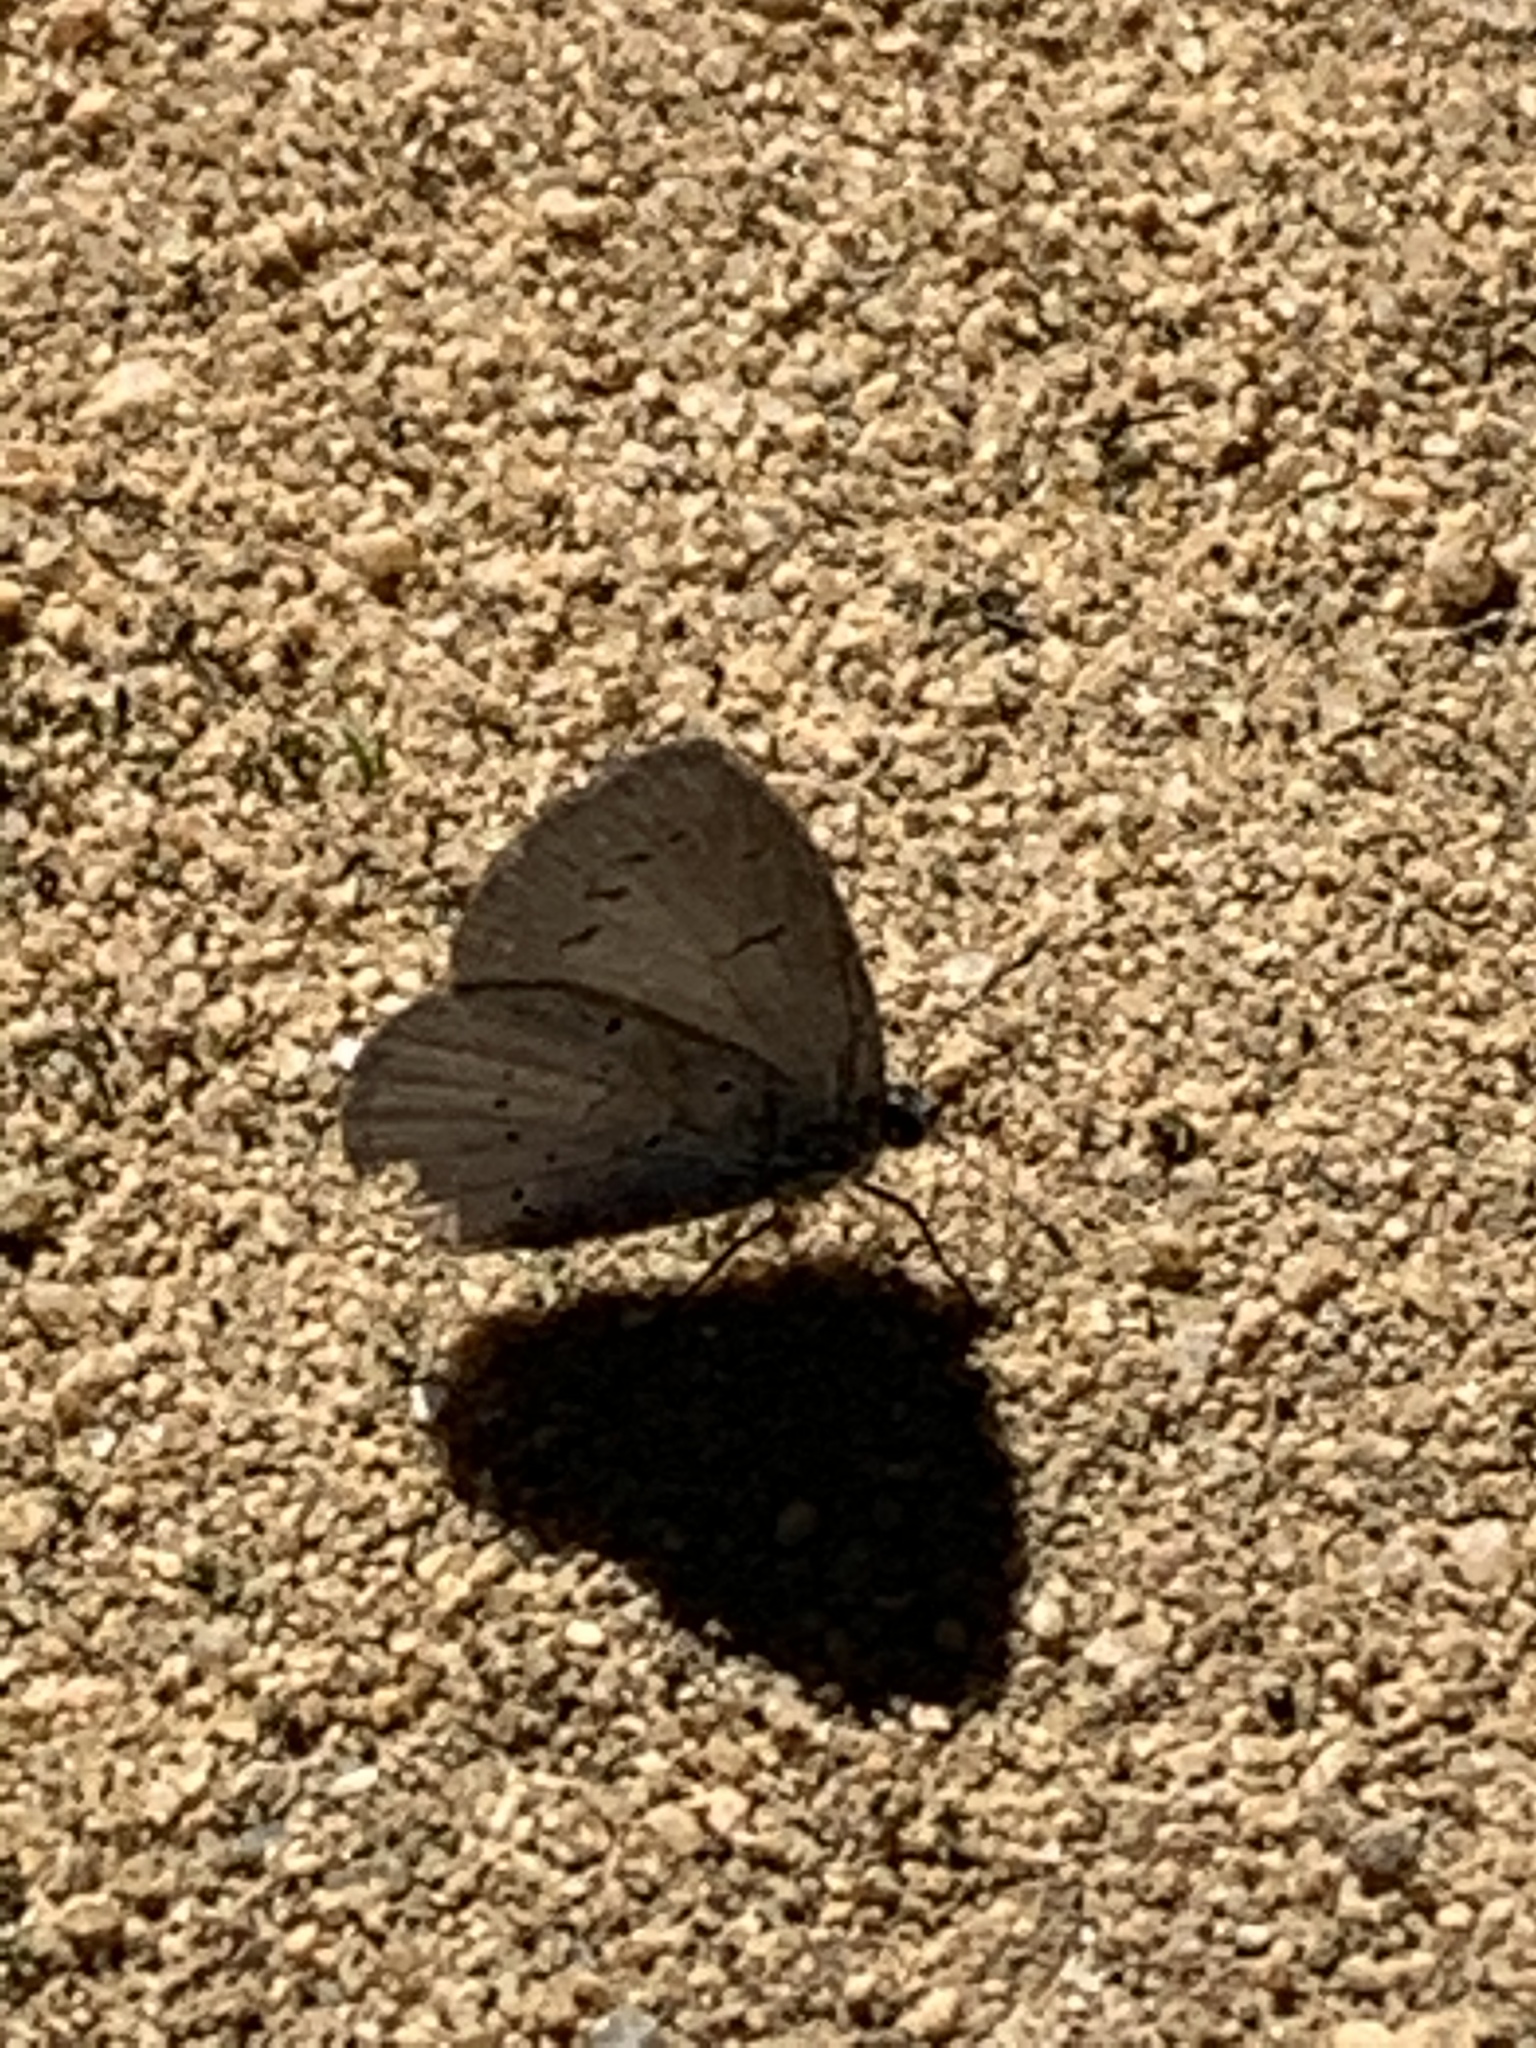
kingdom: Animalia
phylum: Arthropoda
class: Insecta
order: Lepidoptera
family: Lycaenidae
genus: Celastrina
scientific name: Celastrina argiolus
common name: Holly blue
